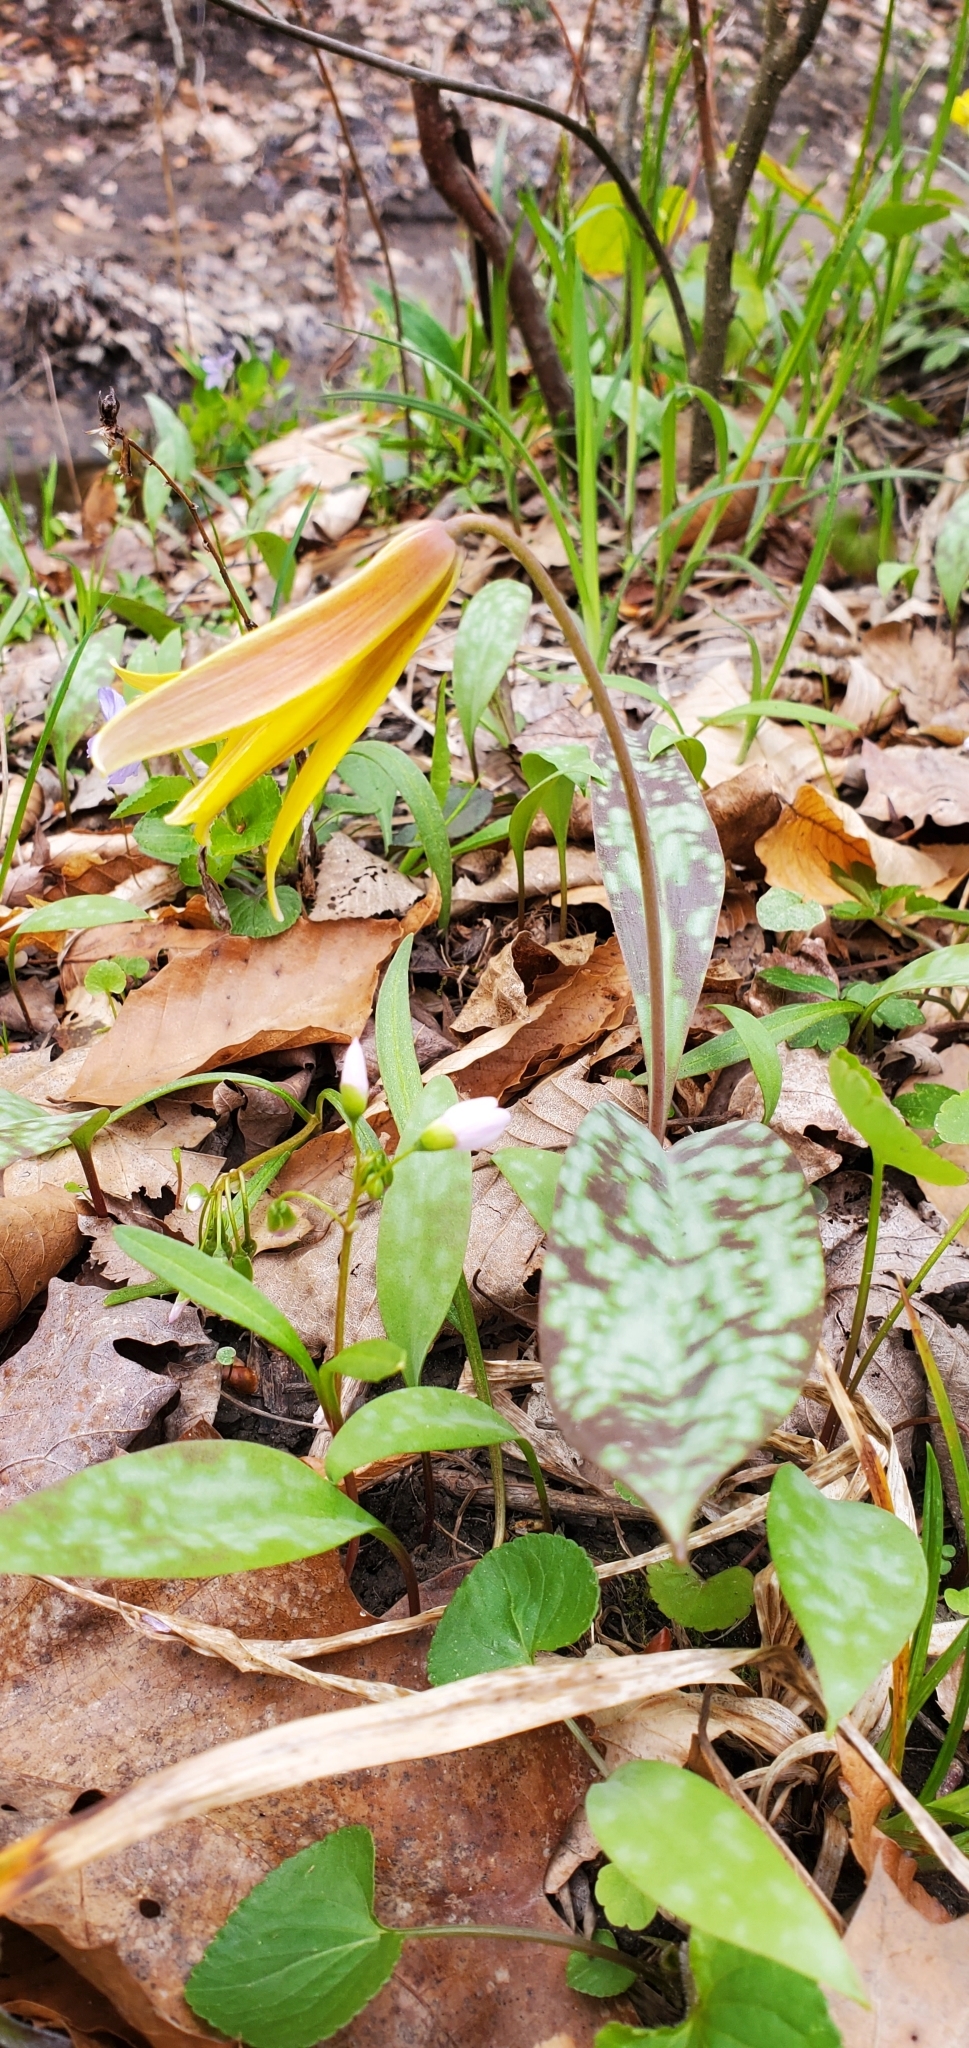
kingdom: Plantae
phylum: Tracheophyta
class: Liliopsida
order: Liliales
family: Liliaceae
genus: Erythronium
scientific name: Erythronium americanum
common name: Yellow adder's-tongue
